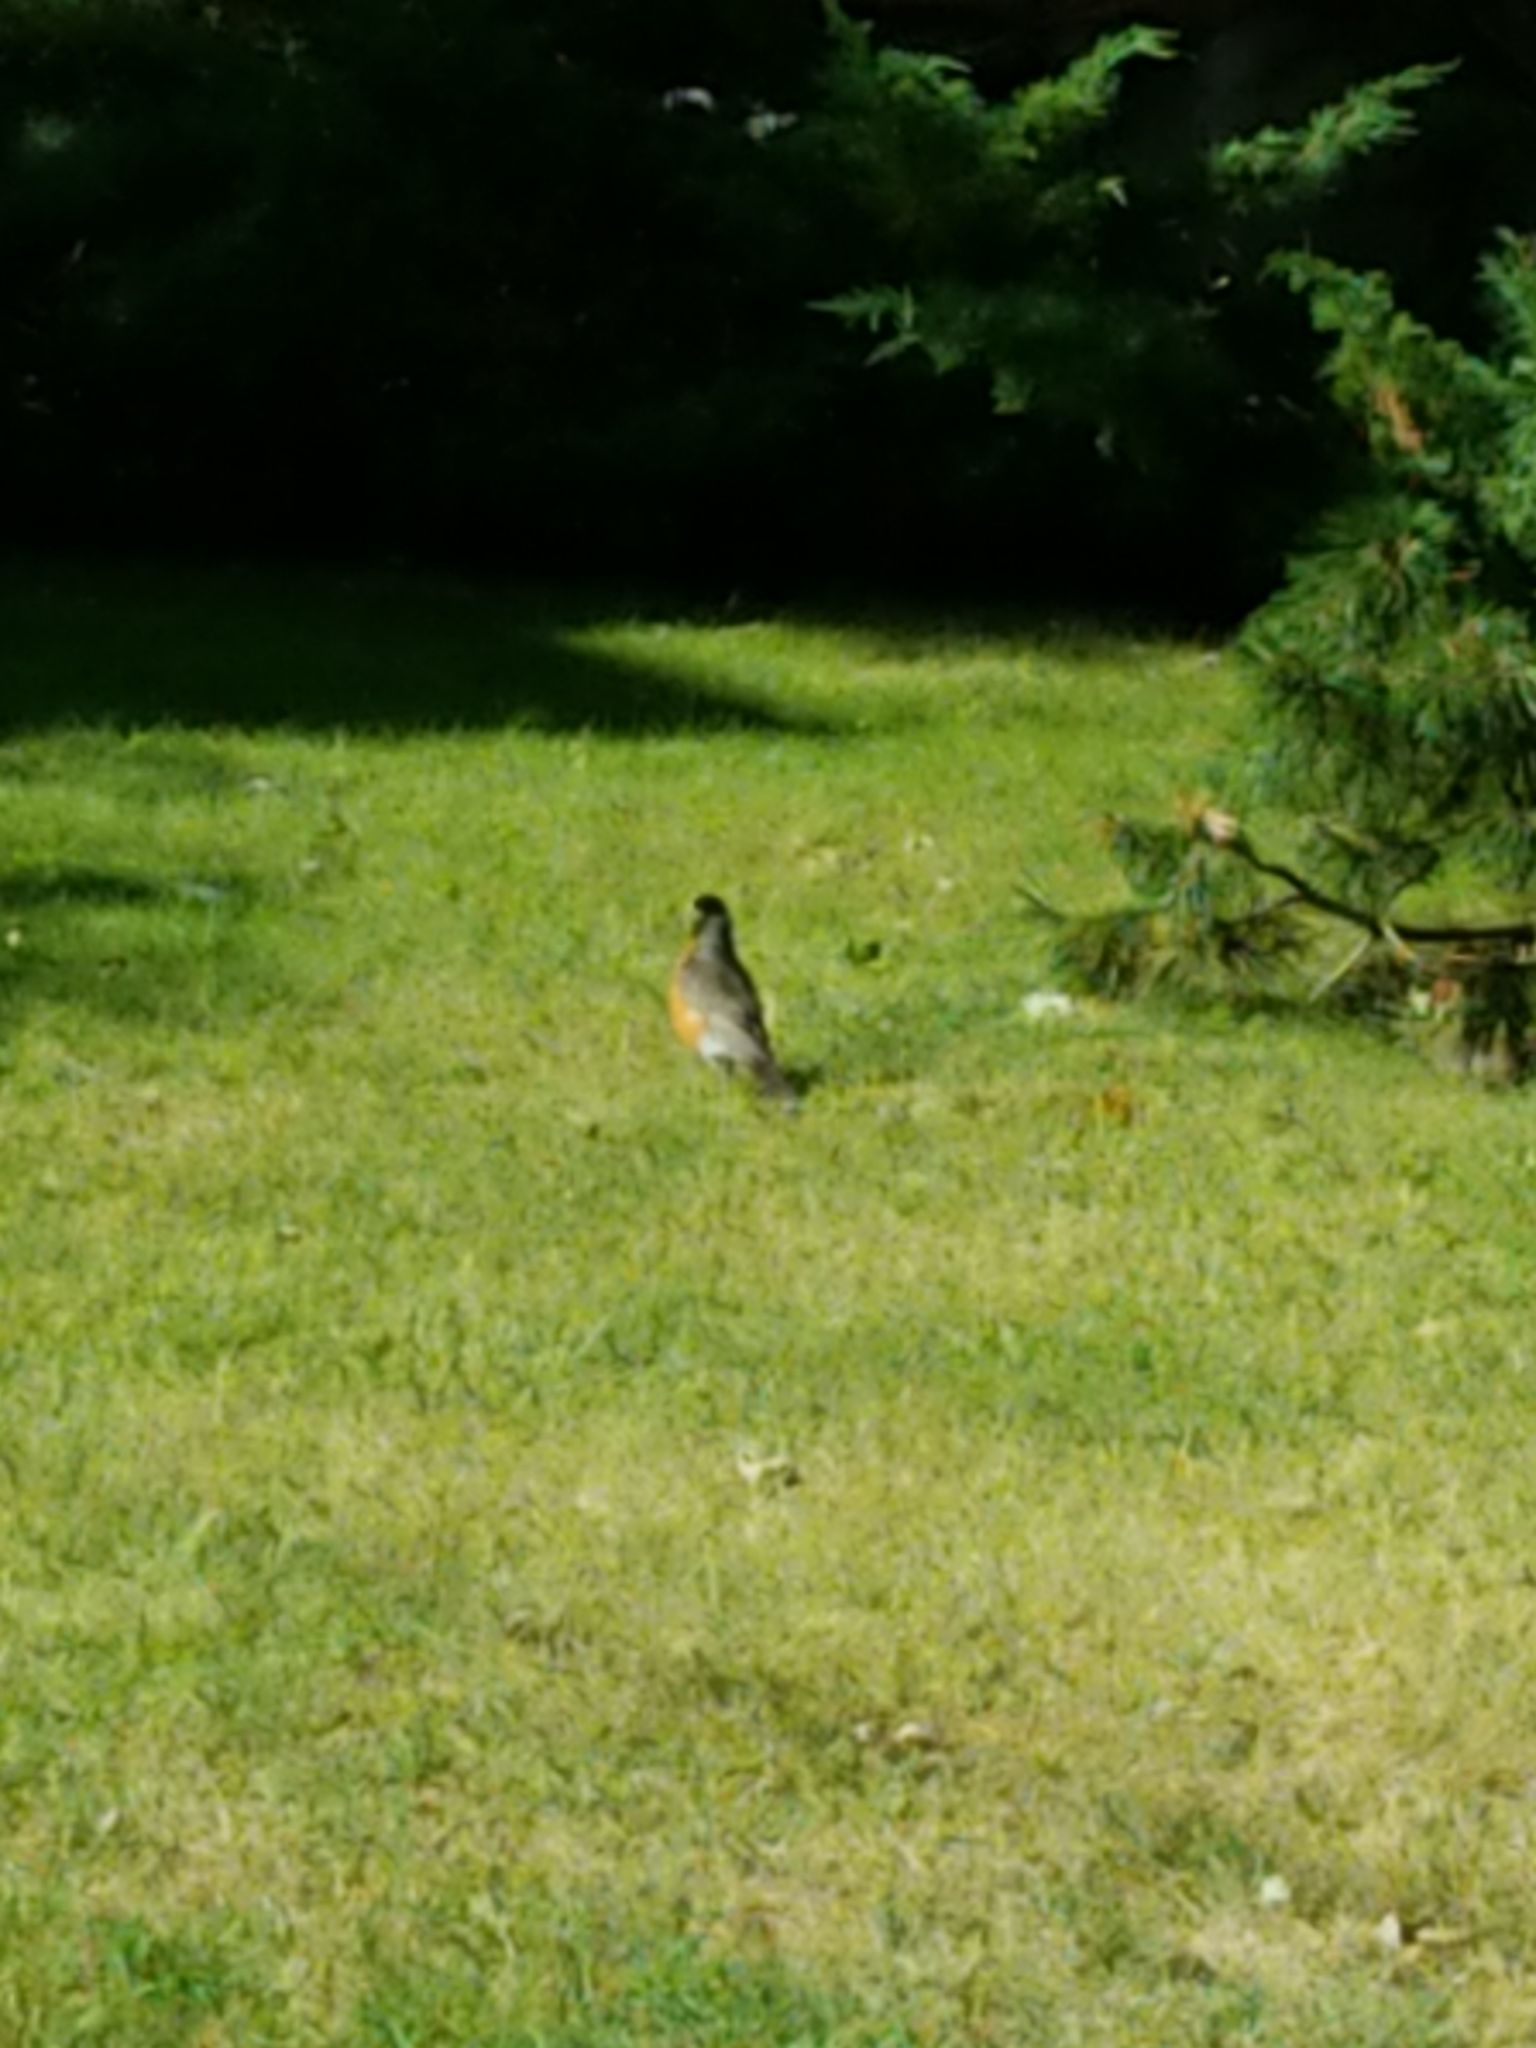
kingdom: Animalia
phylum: Chordata
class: Aves
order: Passeriformes
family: Turdidae
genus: Turdus
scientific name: Turdus migratorius
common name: American robin
